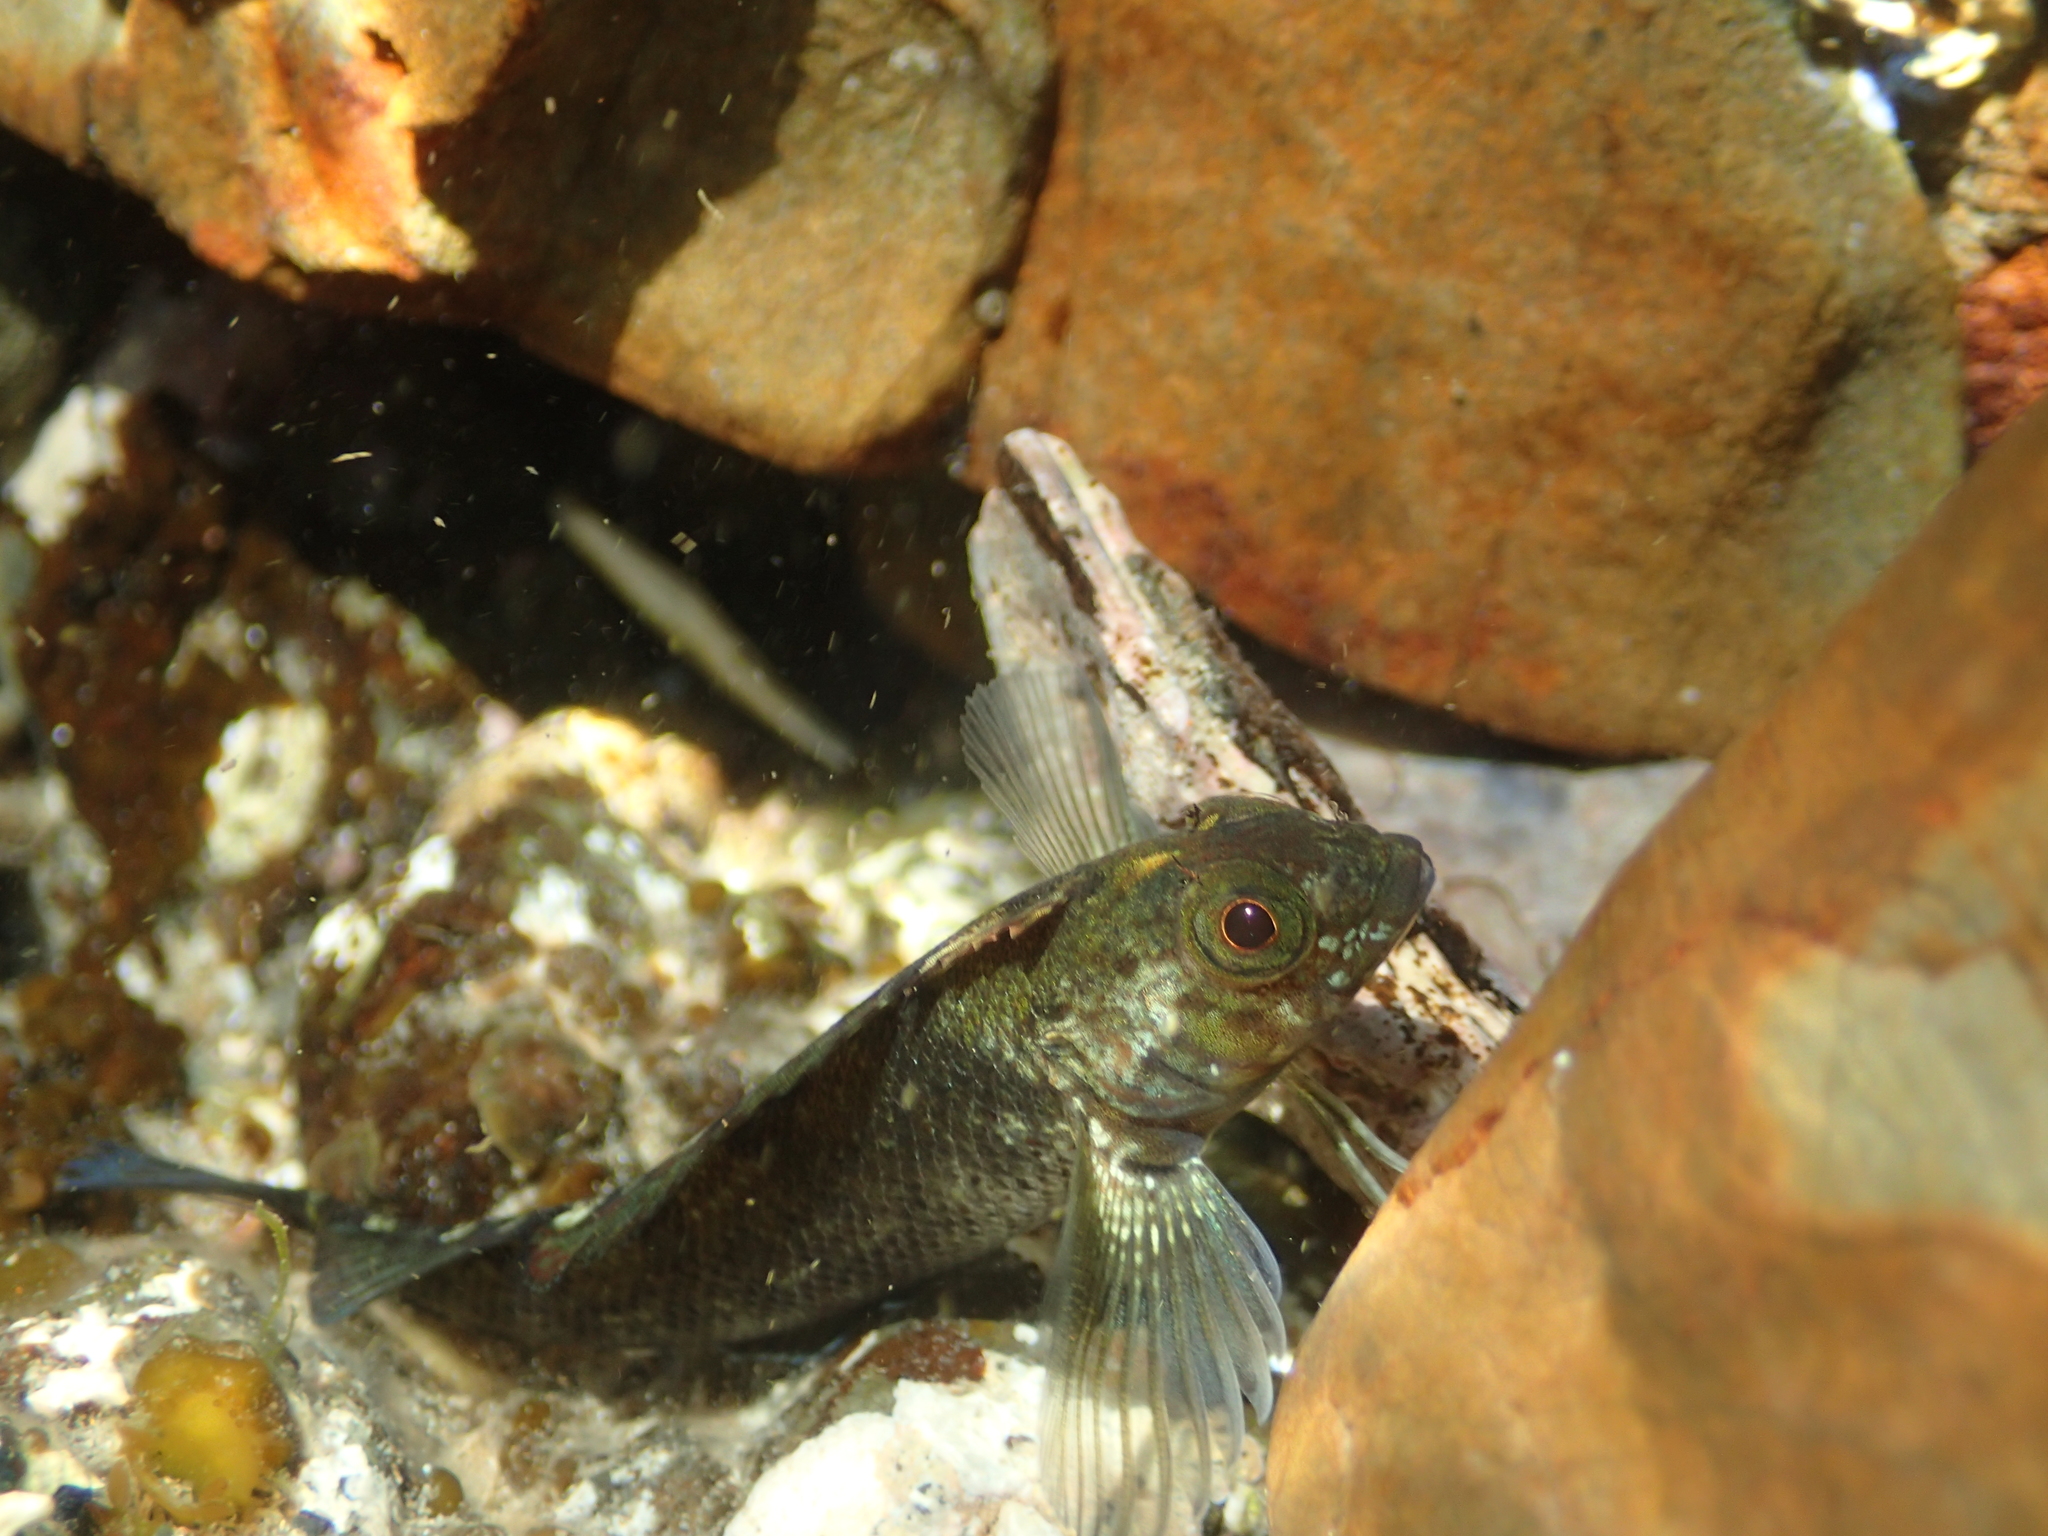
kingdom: Animalia
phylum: Chordata
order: Perciformes
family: Tripterygiidae
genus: Forsterygion
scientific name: Forsterygion lapillum
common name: Common triplefin
